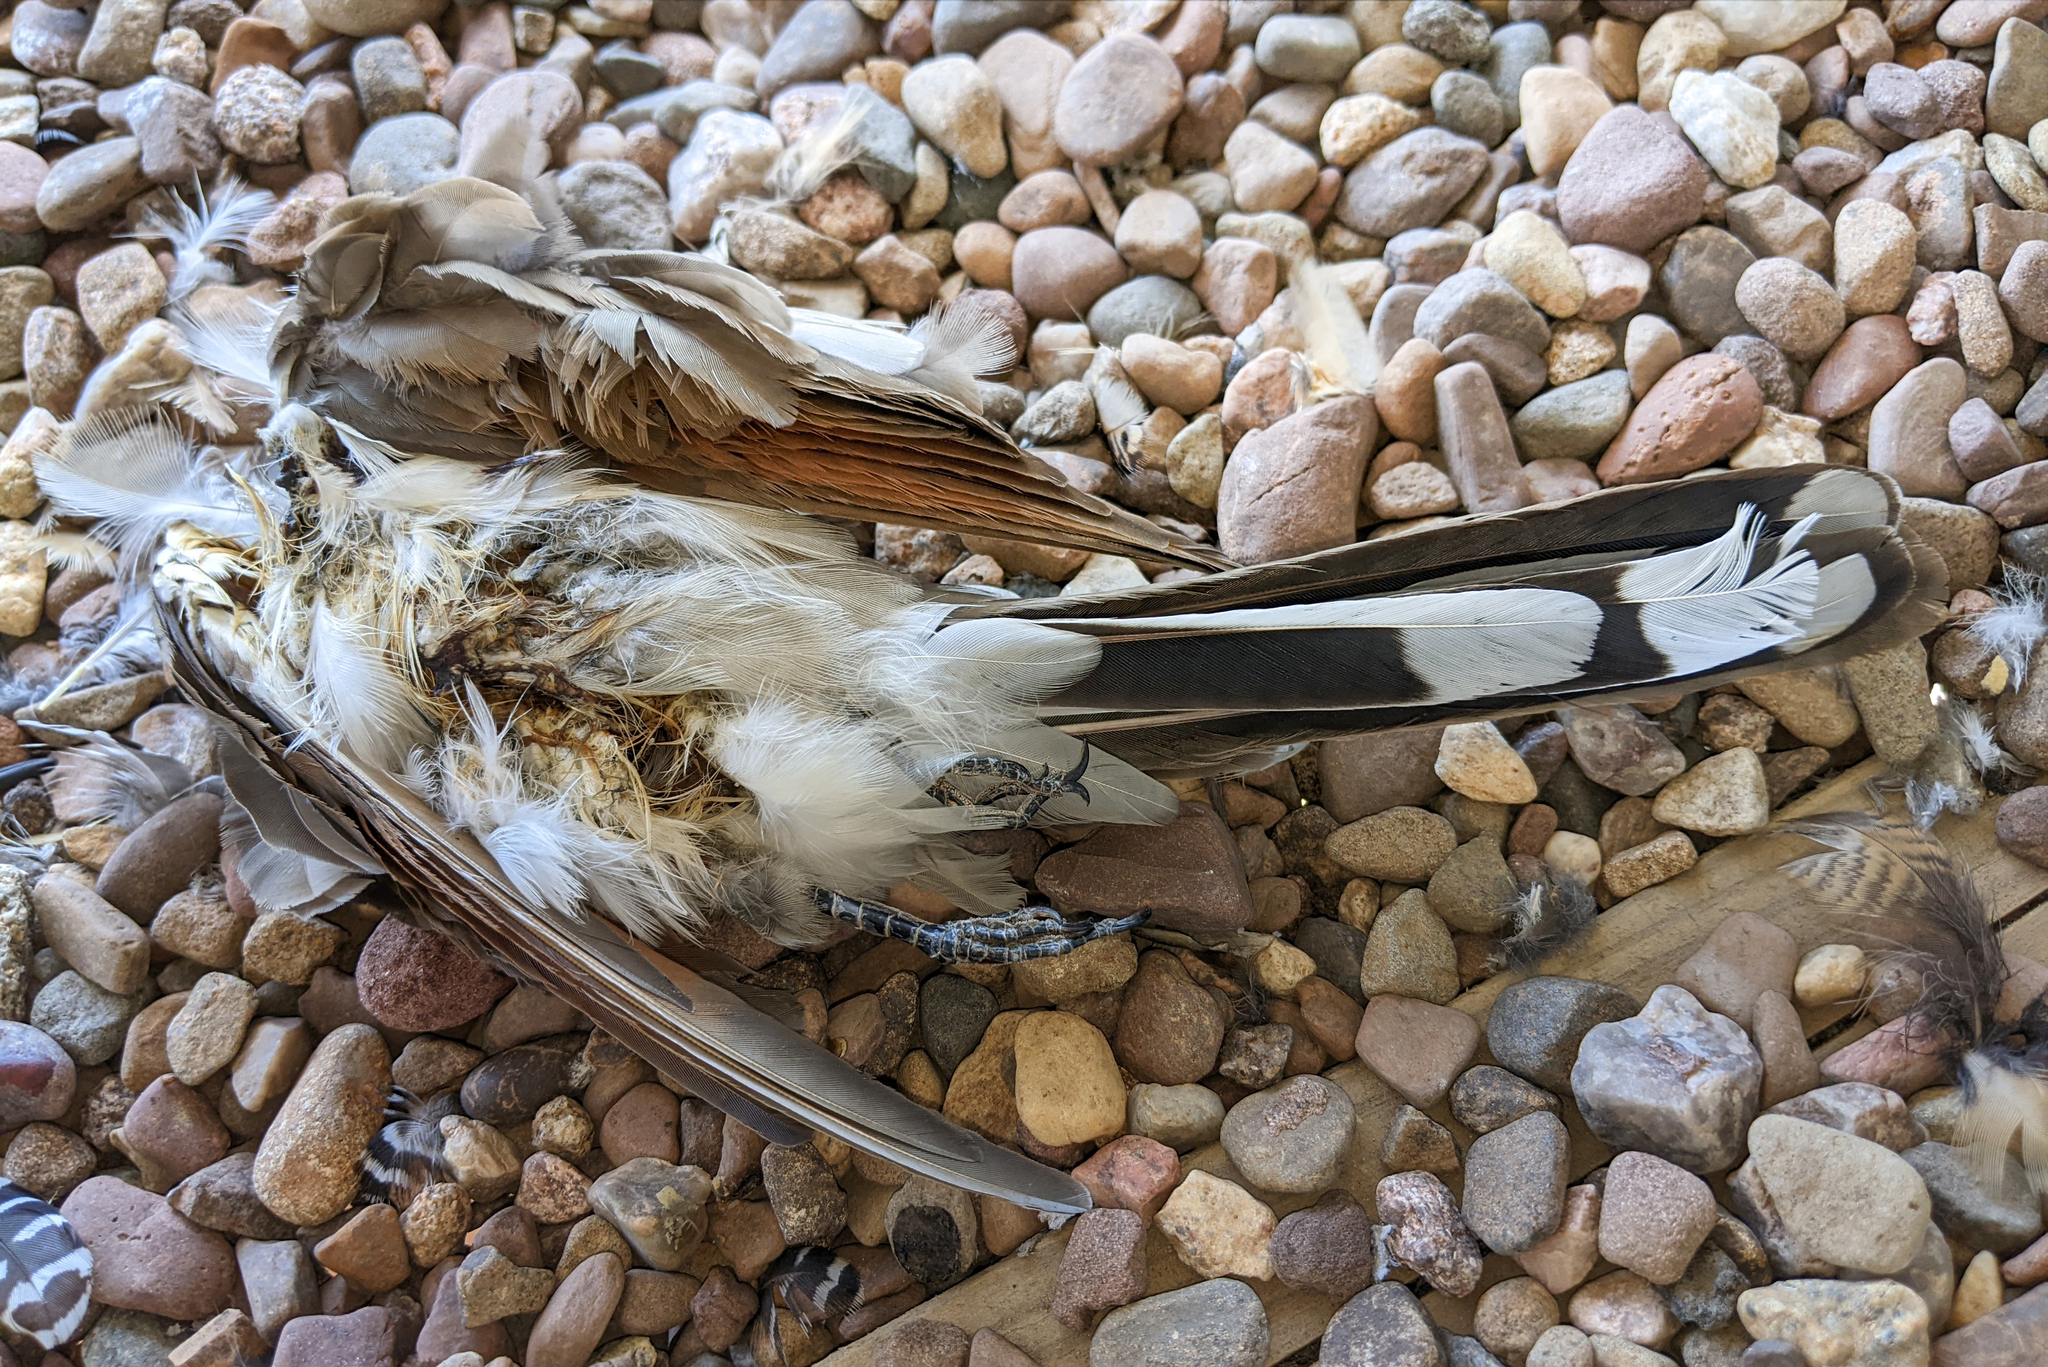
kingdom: Animalia
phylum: Chordata
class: Aves
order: Cuculiformes
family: Cuculidae
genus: Coccyzus
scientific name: Coccyzus americanus
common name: Yellow-billed cuckoo
